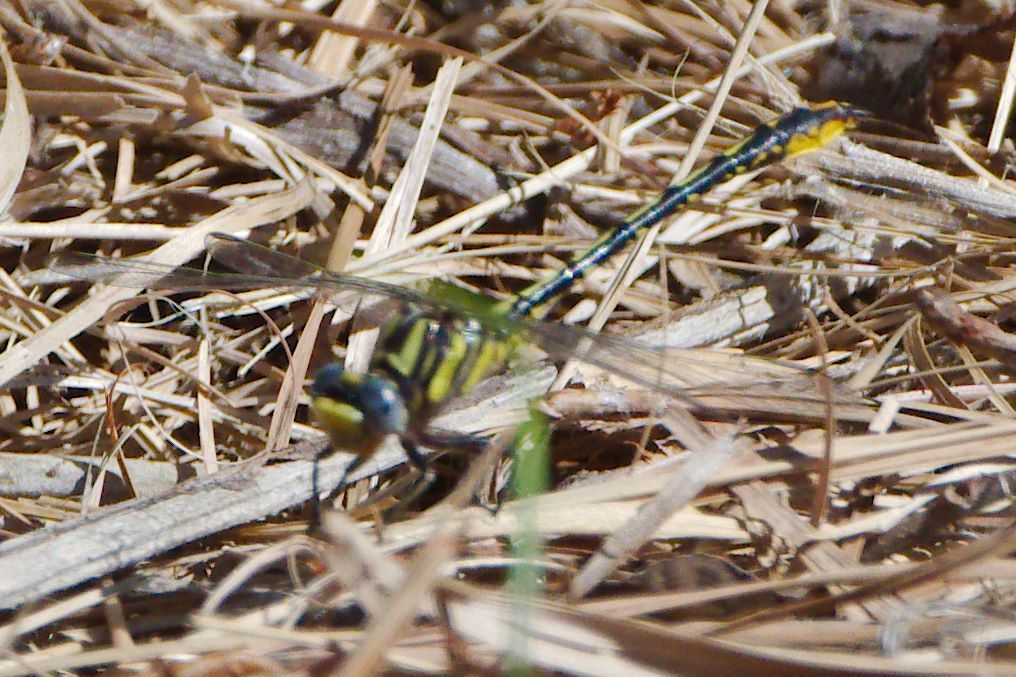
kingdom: Animalia
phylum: Arthropoda
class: Insecta
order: Odonata
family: Gomphidae
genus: Phanogomphus
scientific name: Phanogomphus exilis
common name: Lancet clubtail
